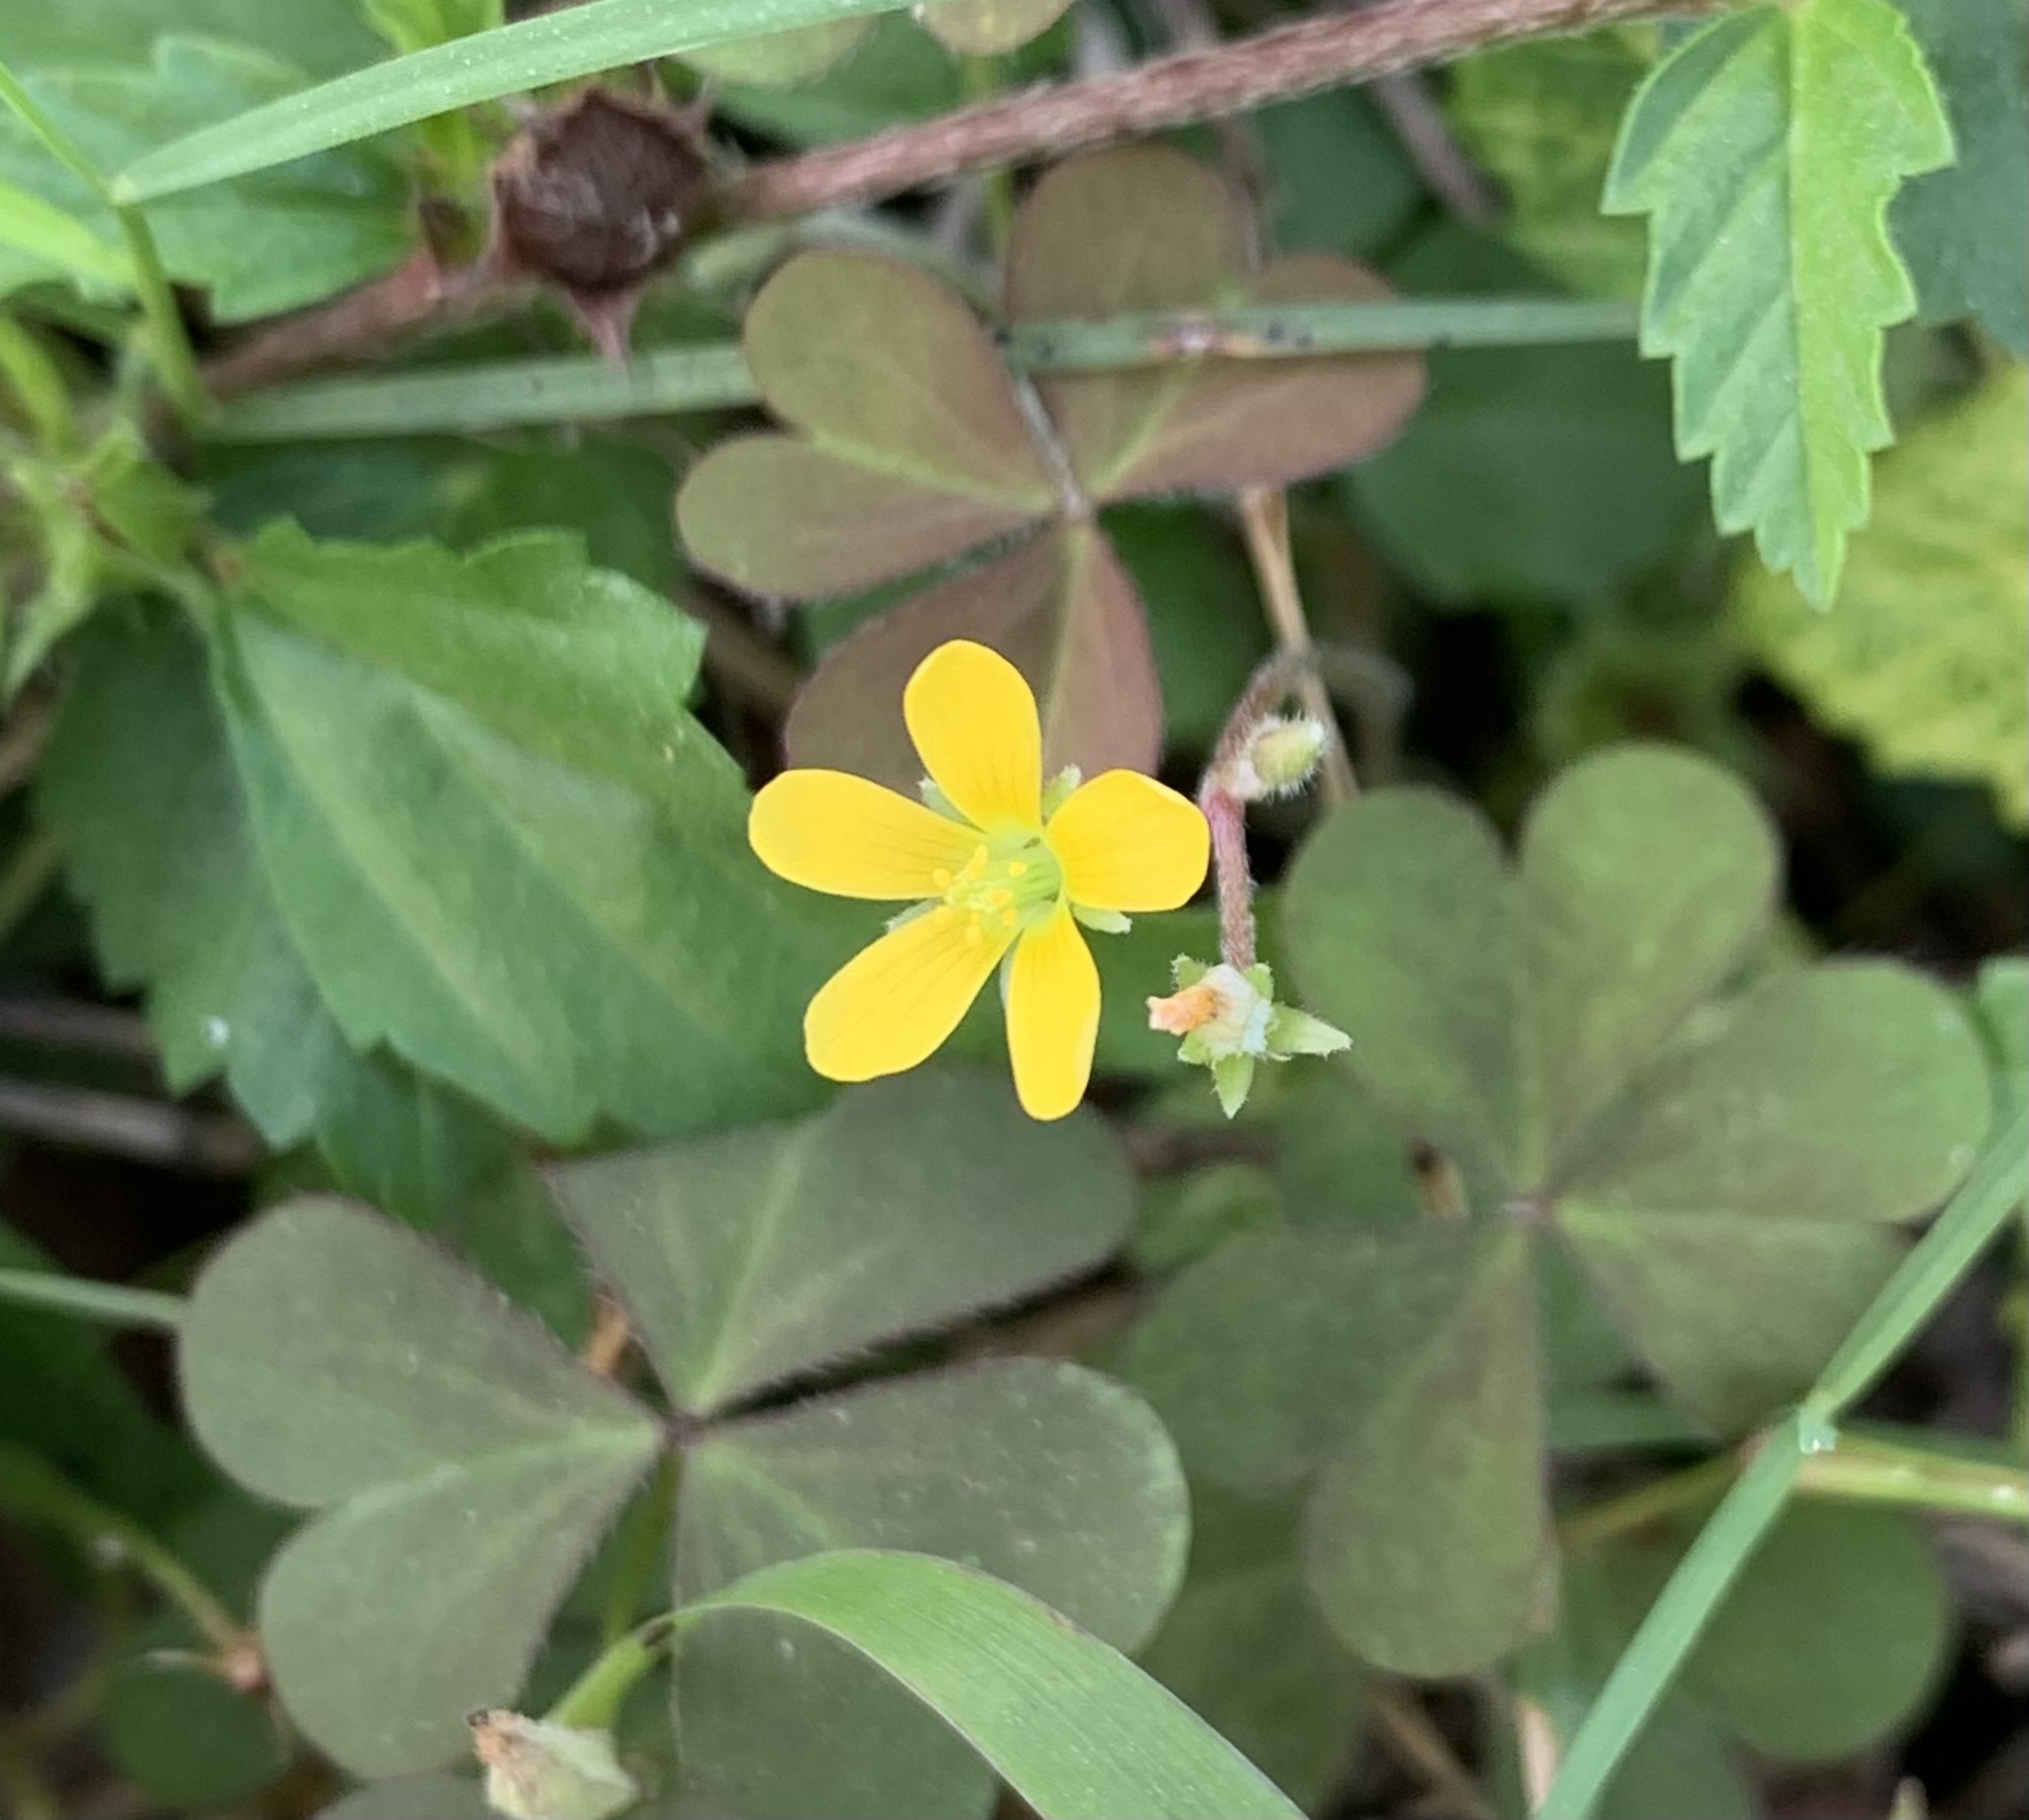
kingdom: Plantae
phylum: Tracheophyta
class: Magnoliopsida
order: Oxalidales
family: Oxalidaceae
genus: Oxalis
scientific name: Oxalis corniculata
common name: Procumbent yellow-sorrel
